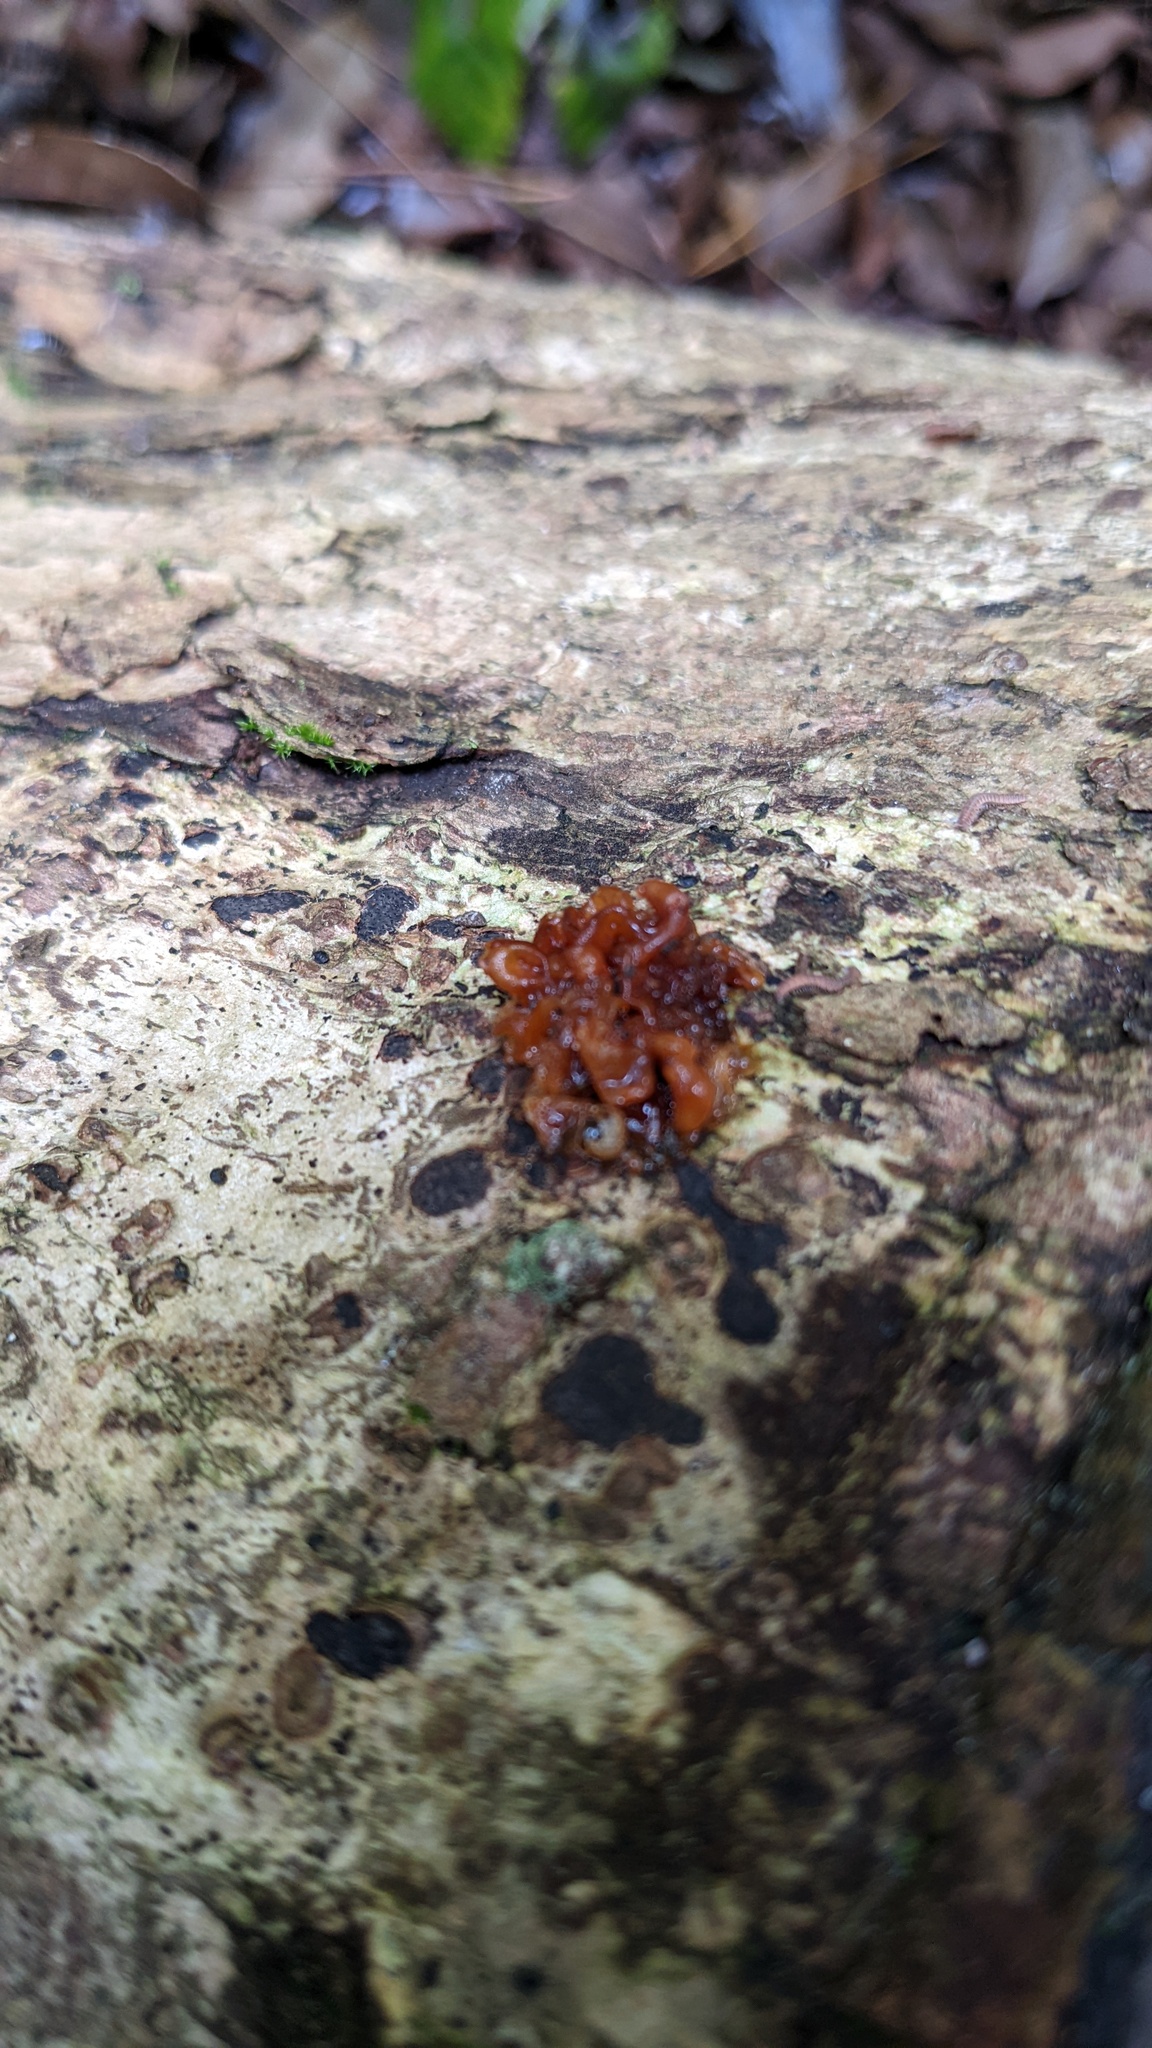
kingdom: Fungi
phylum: Basidiomycota
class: Tremellomycetes
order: Tremellales
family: Sirobasidiaceae
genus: Sirobasidium
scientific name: Sirobasidium magnum
